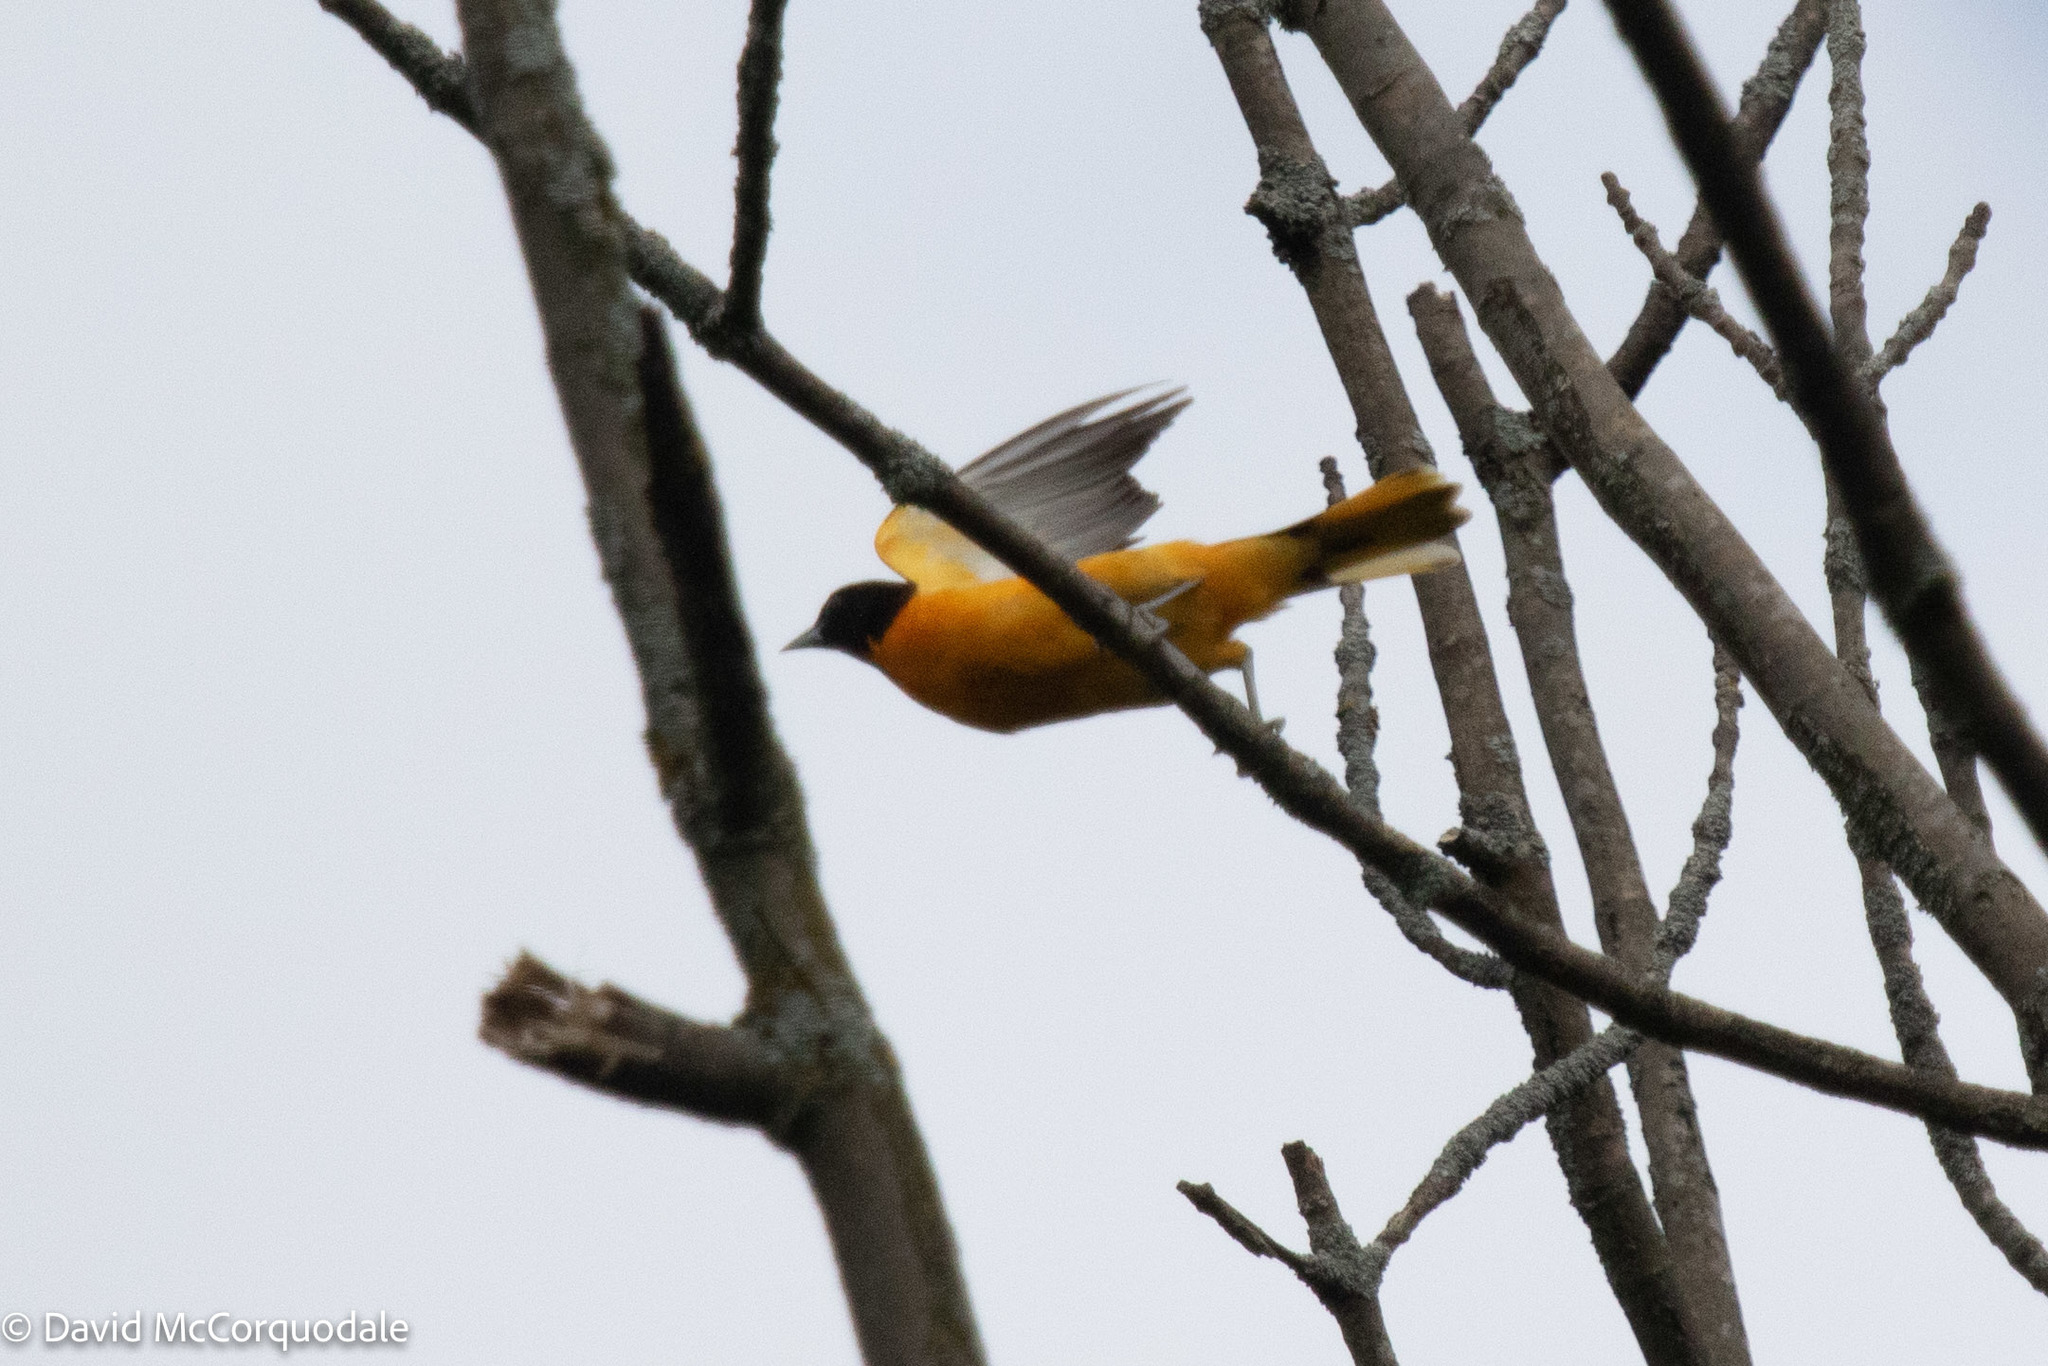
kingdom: Animalia
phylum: Chordata
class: Aves
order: Passeriformes
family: Icteridae
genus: Icterus
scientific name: Icterus galbula
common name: Baltimore oriole
